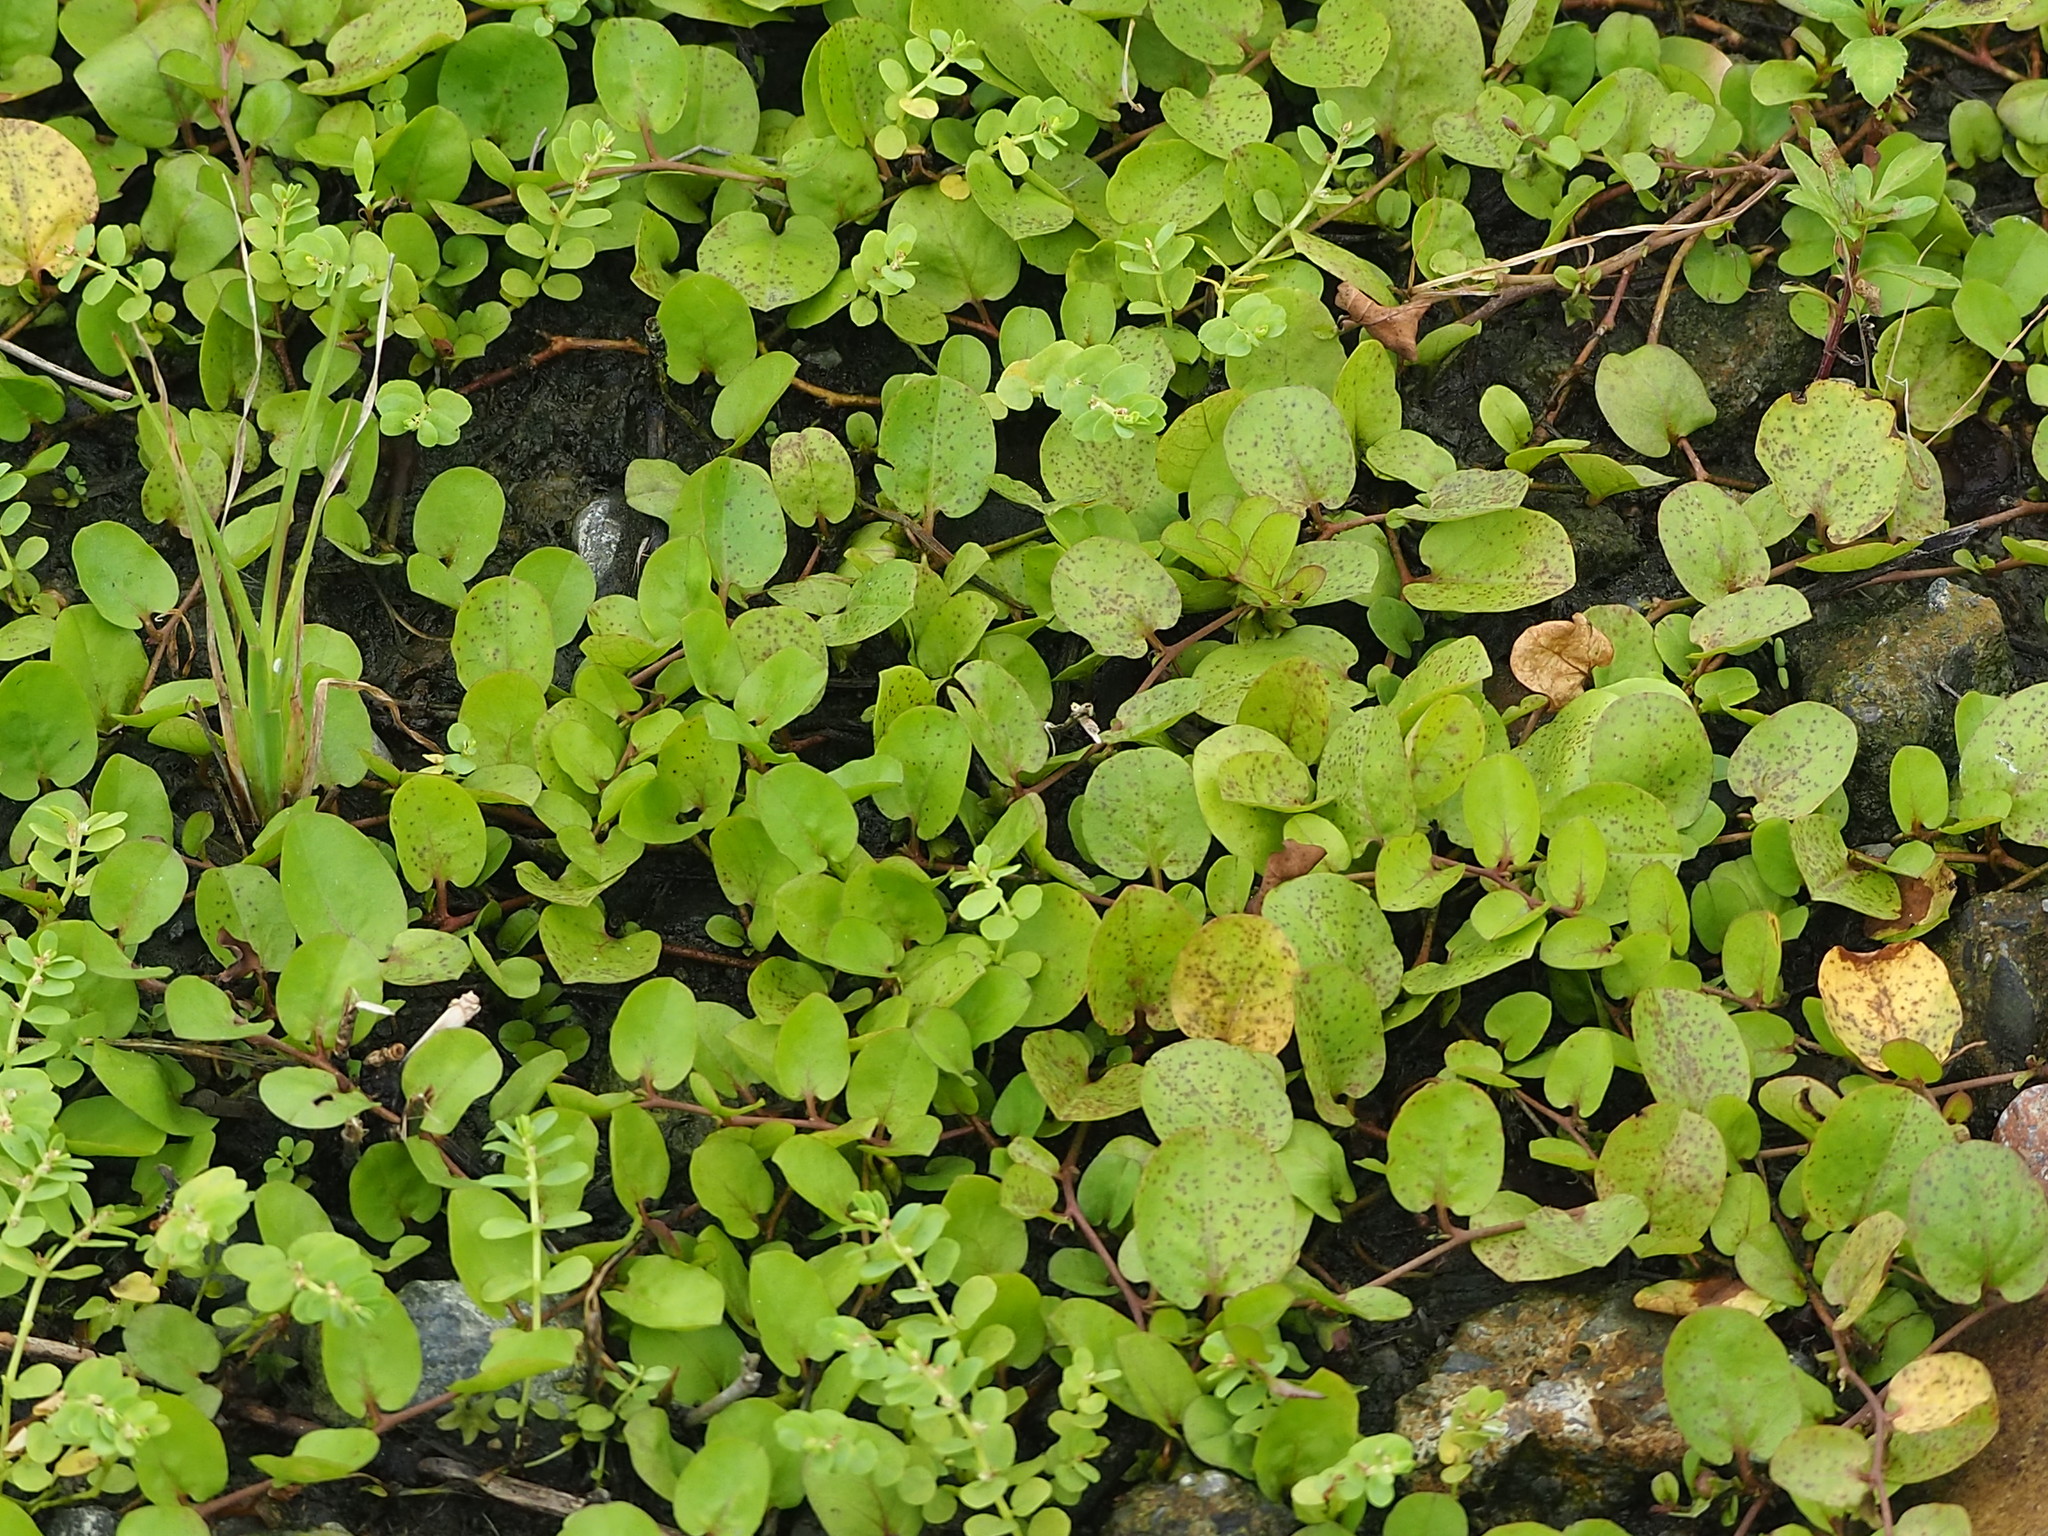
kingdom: Plantae
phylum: Tracheophyta
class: Magnoliopsida
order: Solanales
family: Convolvulaceae
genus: Evolvulus
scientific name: Evolvulus nummularius
